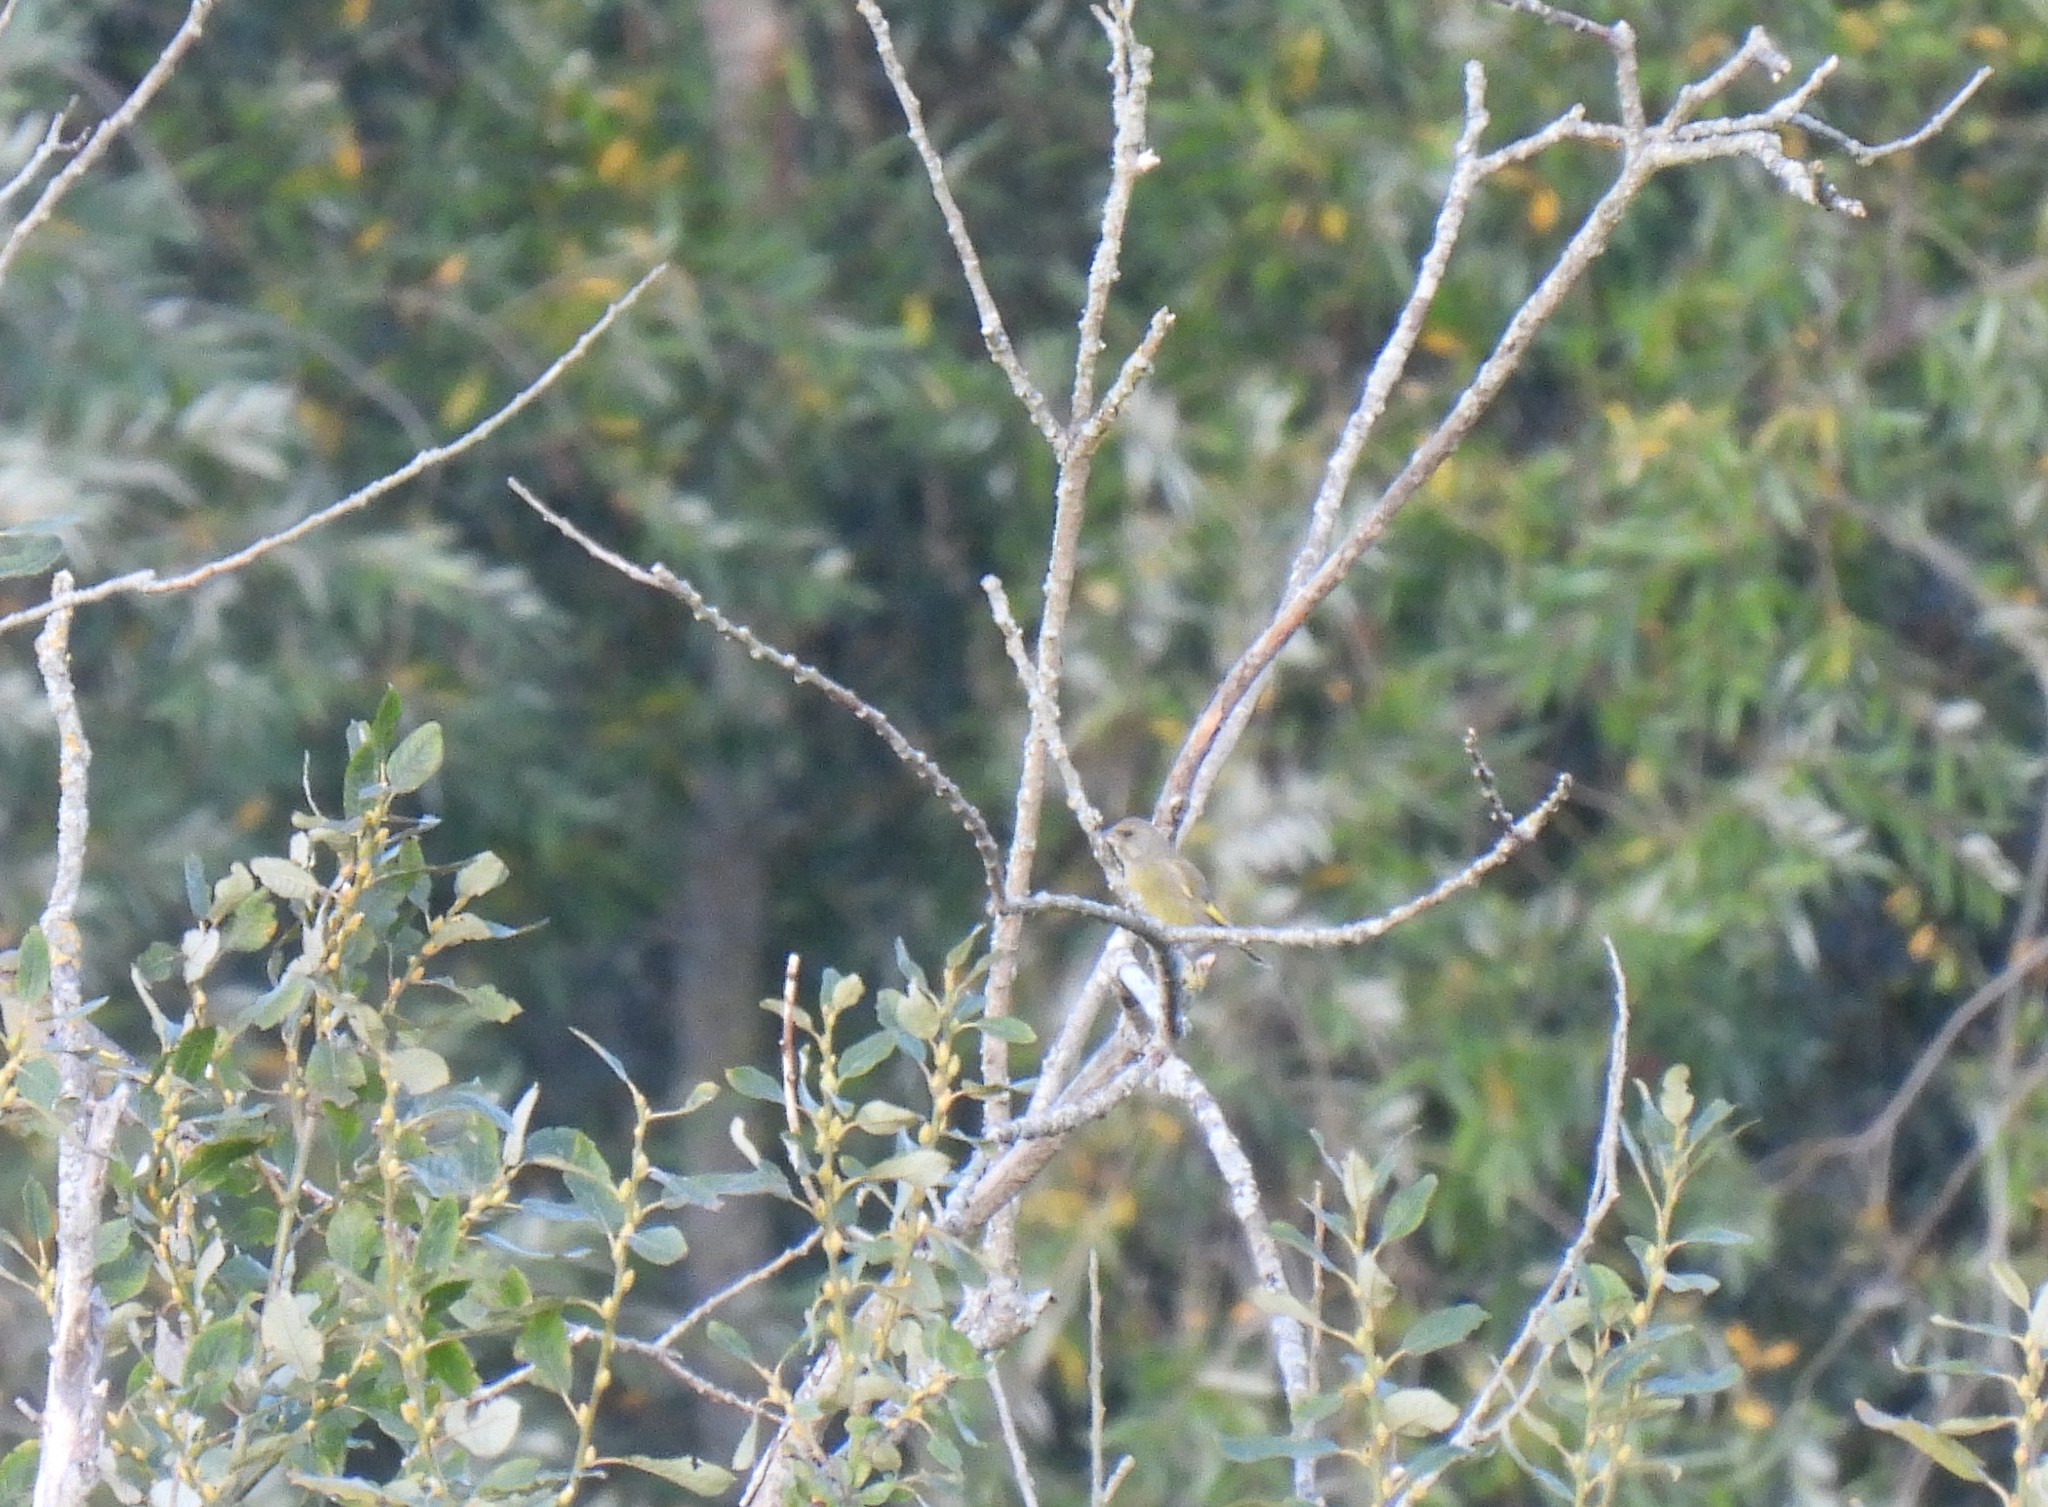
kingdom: Plantae
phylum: Tracheophyta
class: Liliopsida
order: Poales
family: Poaceae
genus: Chloris
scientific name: Chloris chloris
